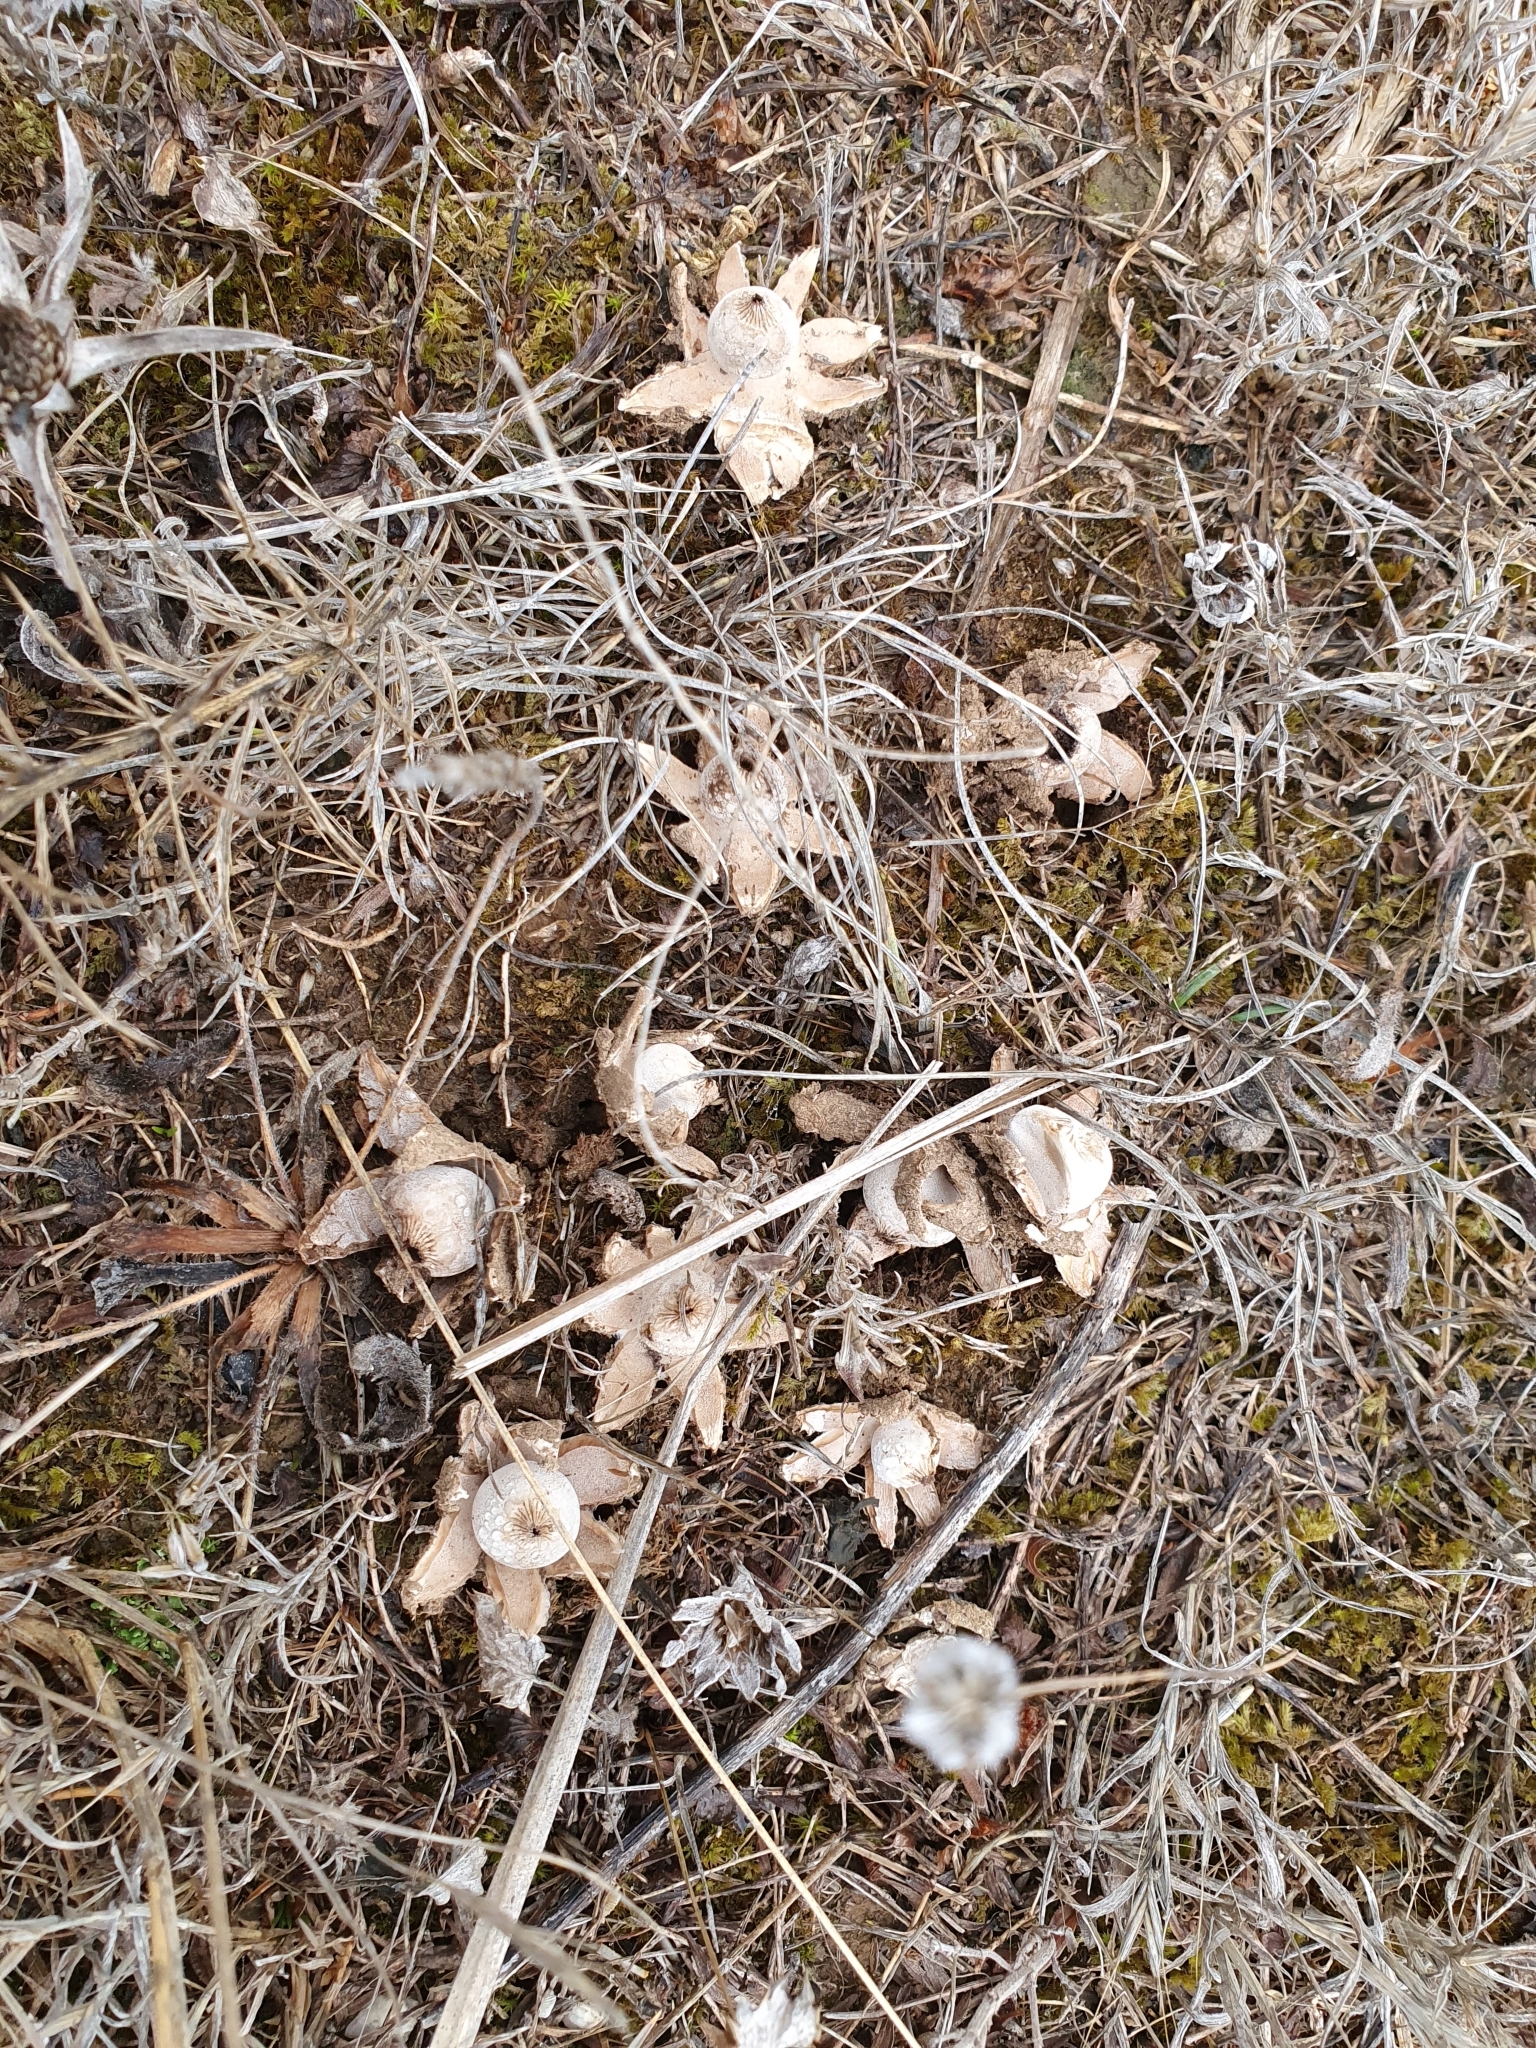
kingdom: Fungi
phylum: Basidiomycota
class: Agaricomycetes
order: Geastrales
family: Geastraceae
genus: Geastrum
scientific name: Geastrum striatum
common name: Striate earthstar
